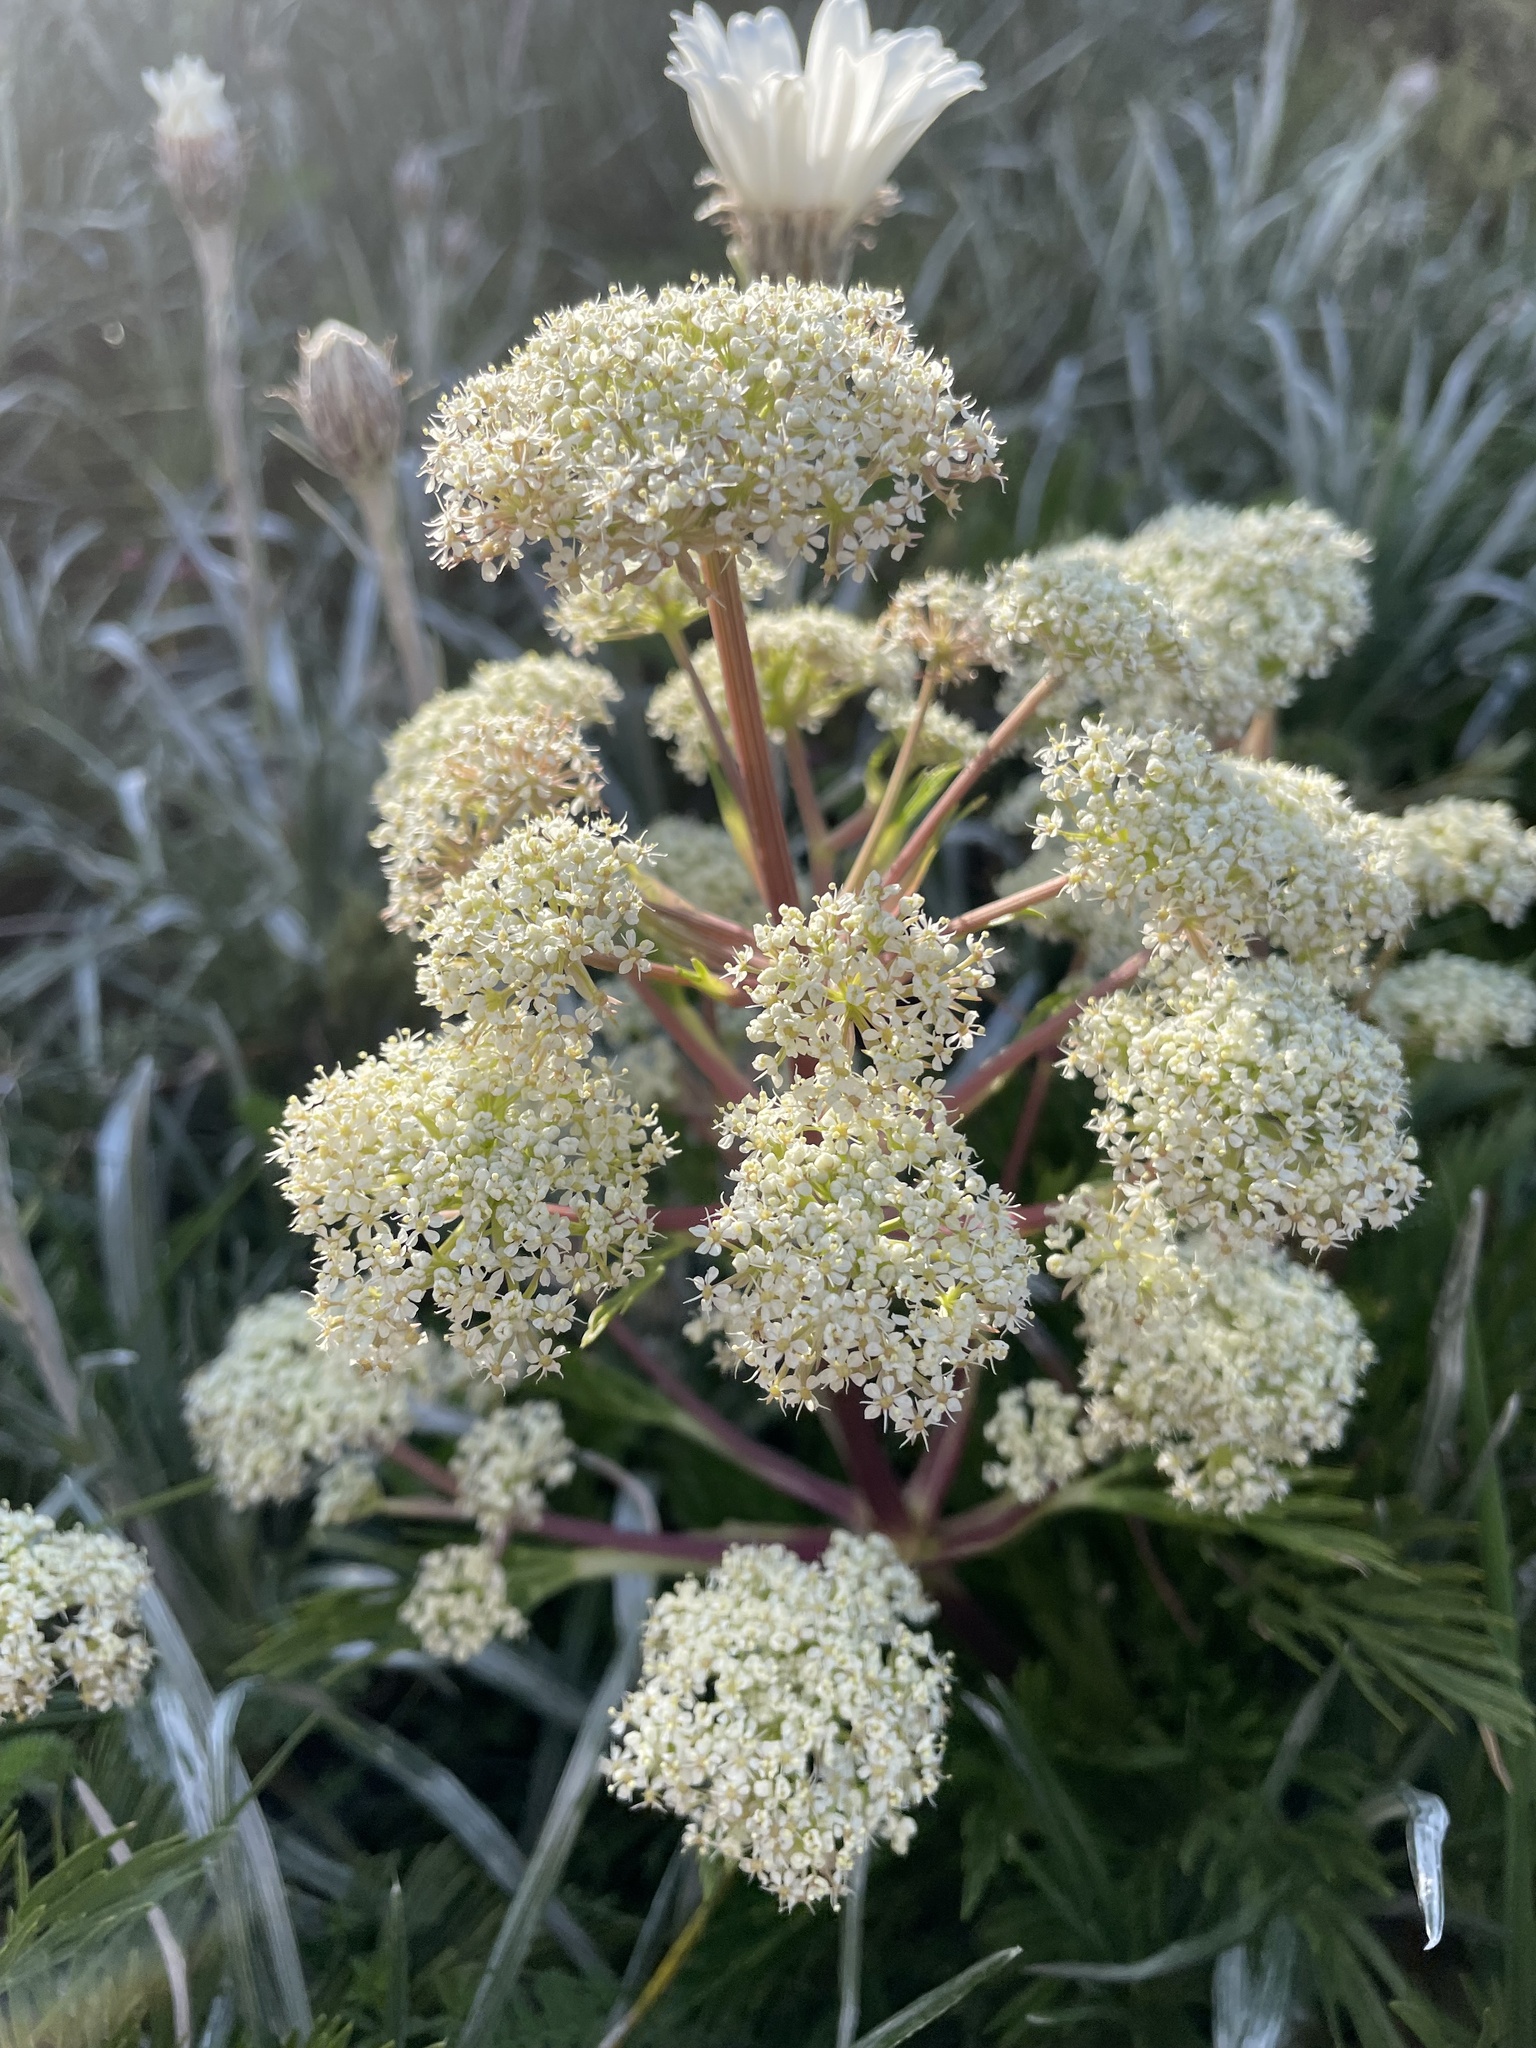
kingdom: Plantae
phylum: Tracheophyta
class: Magnoliopsida
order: Apiales
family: Apiaceae
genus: Aciphylla
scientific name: Aciphylla glacialis
